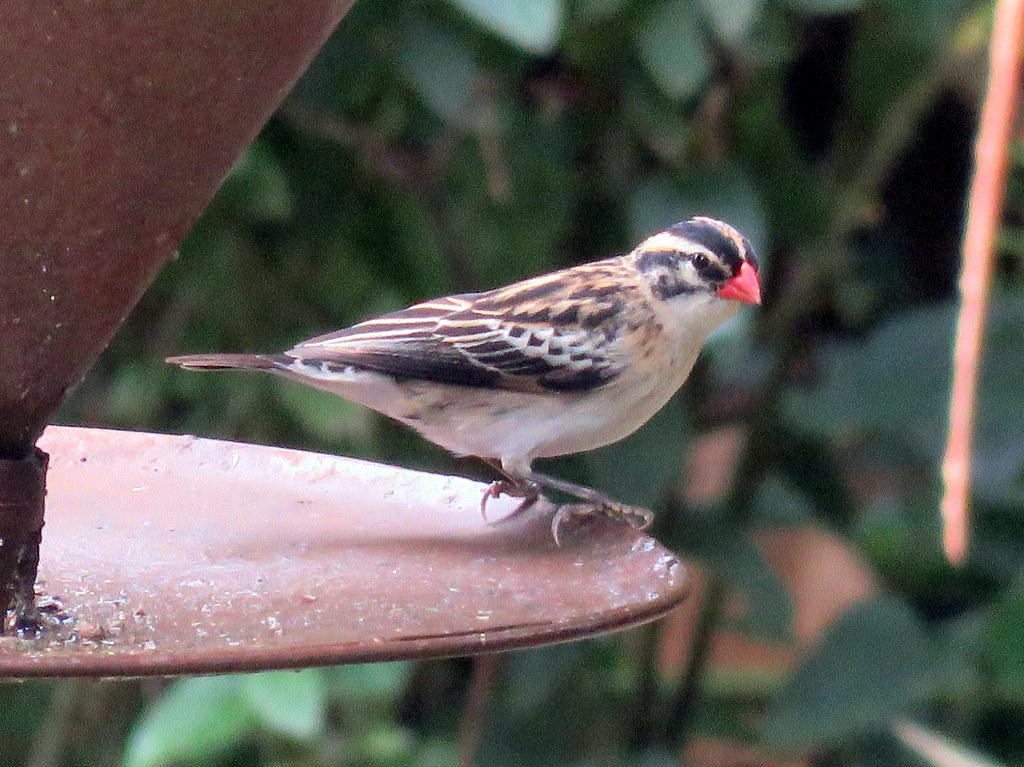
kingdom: Animalia
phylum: Chordata
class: Aves
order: Passeriformes
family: Viduidae
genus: Vidua
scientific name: Vidua macroura
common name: Pin-tailed whydah
